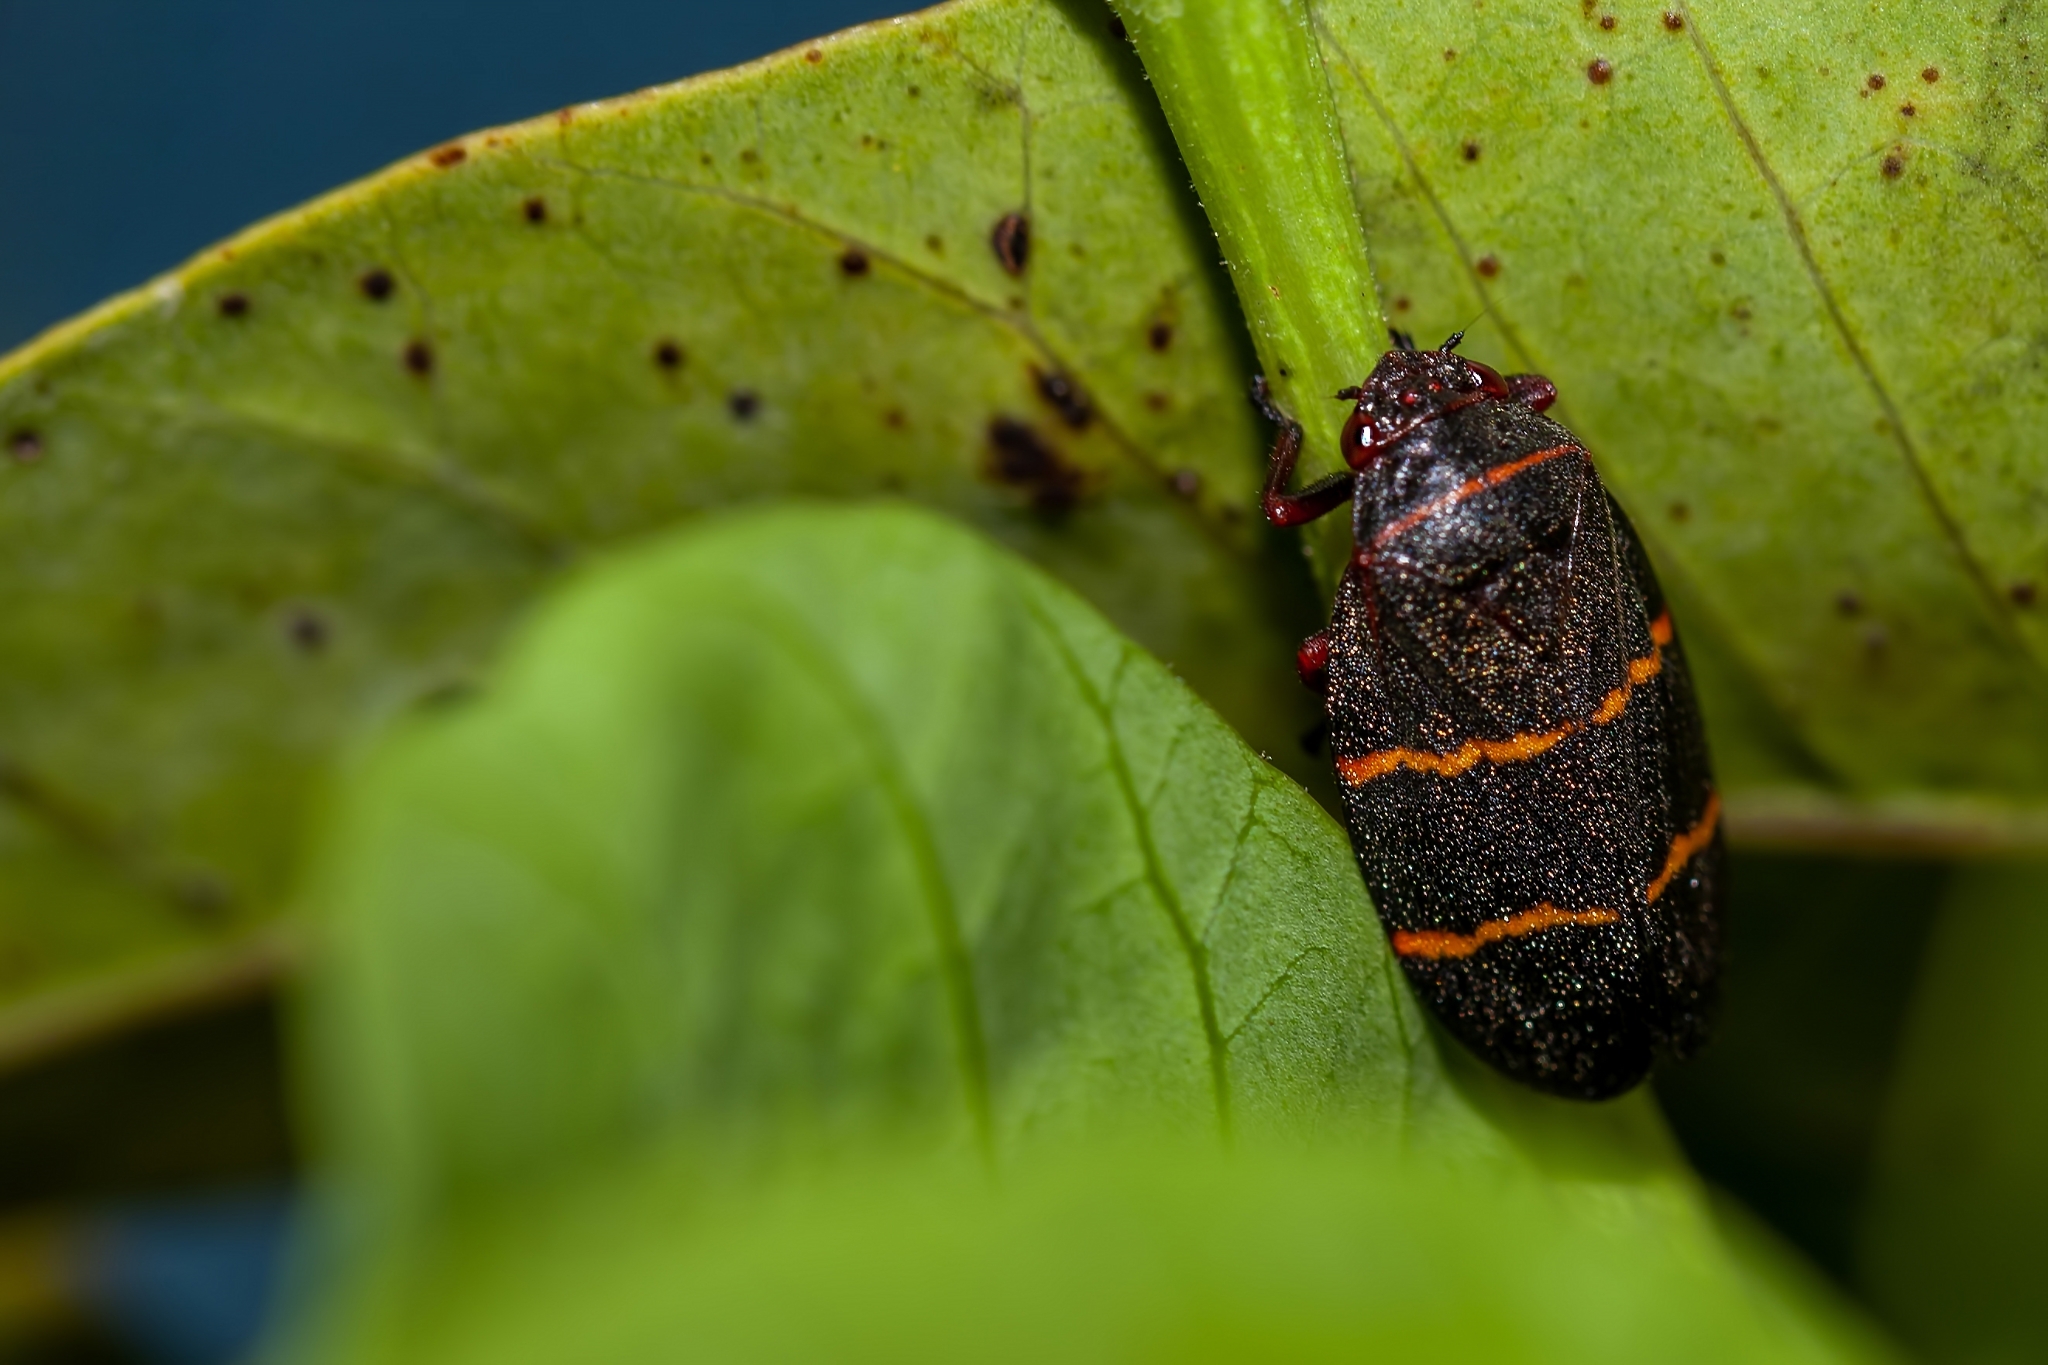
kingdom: Animalia
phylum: Arthropoda
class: Insecta
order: Hemiptera
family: Cercopidae
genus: Prosapia
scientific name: Prosapia bicincta
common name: Twolined spittlebug
